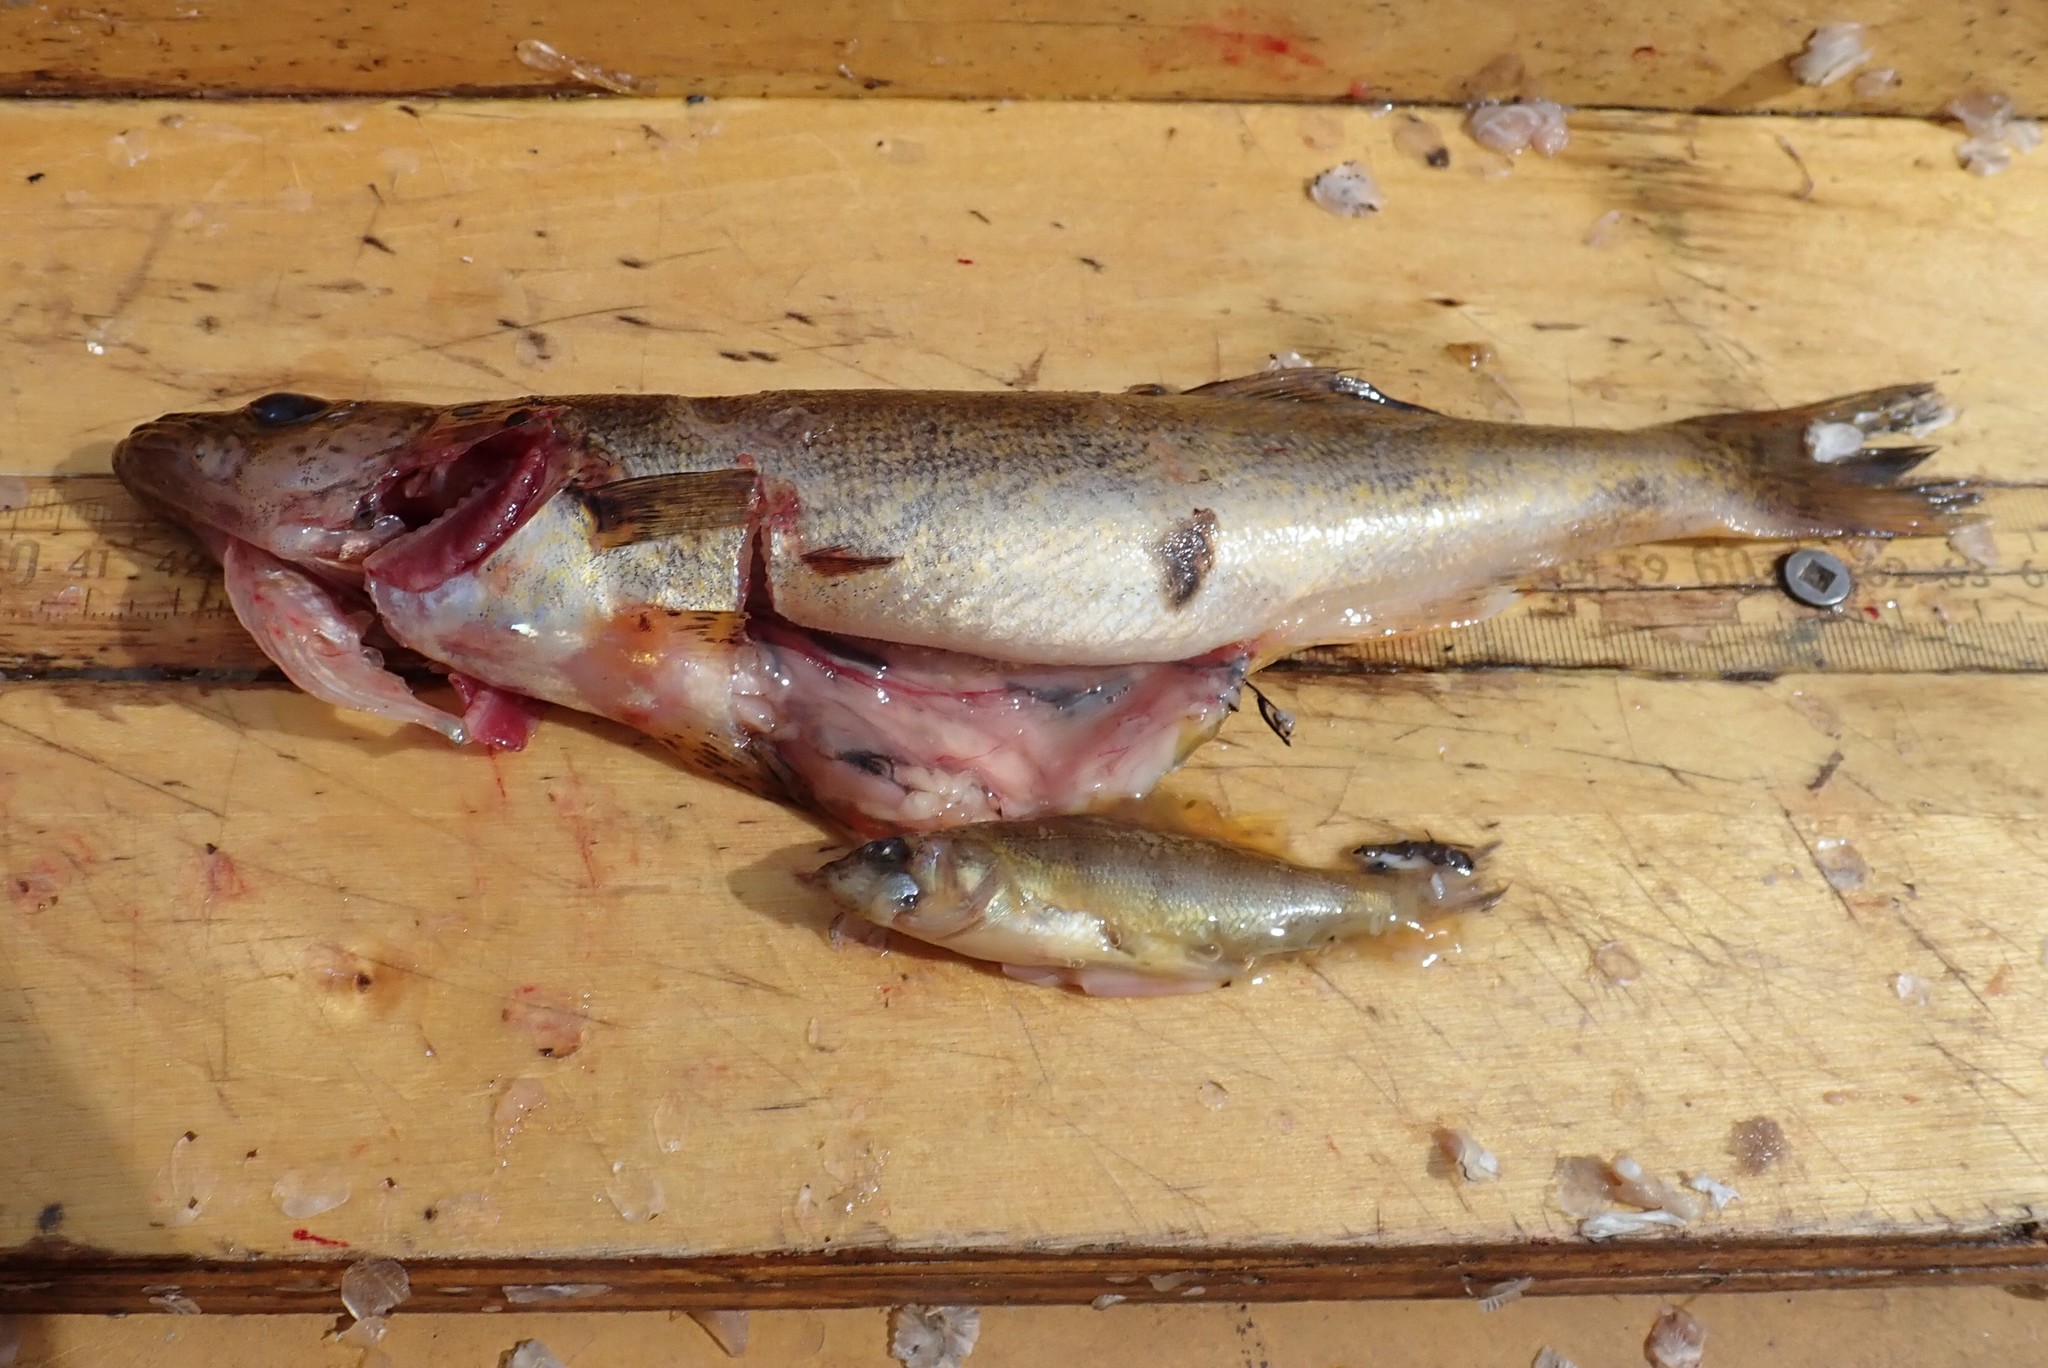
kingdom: Animalia
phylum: Chordata
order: Perciformes
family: Percidae
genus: Sander
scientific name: Sander vitreus
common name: Walleye
